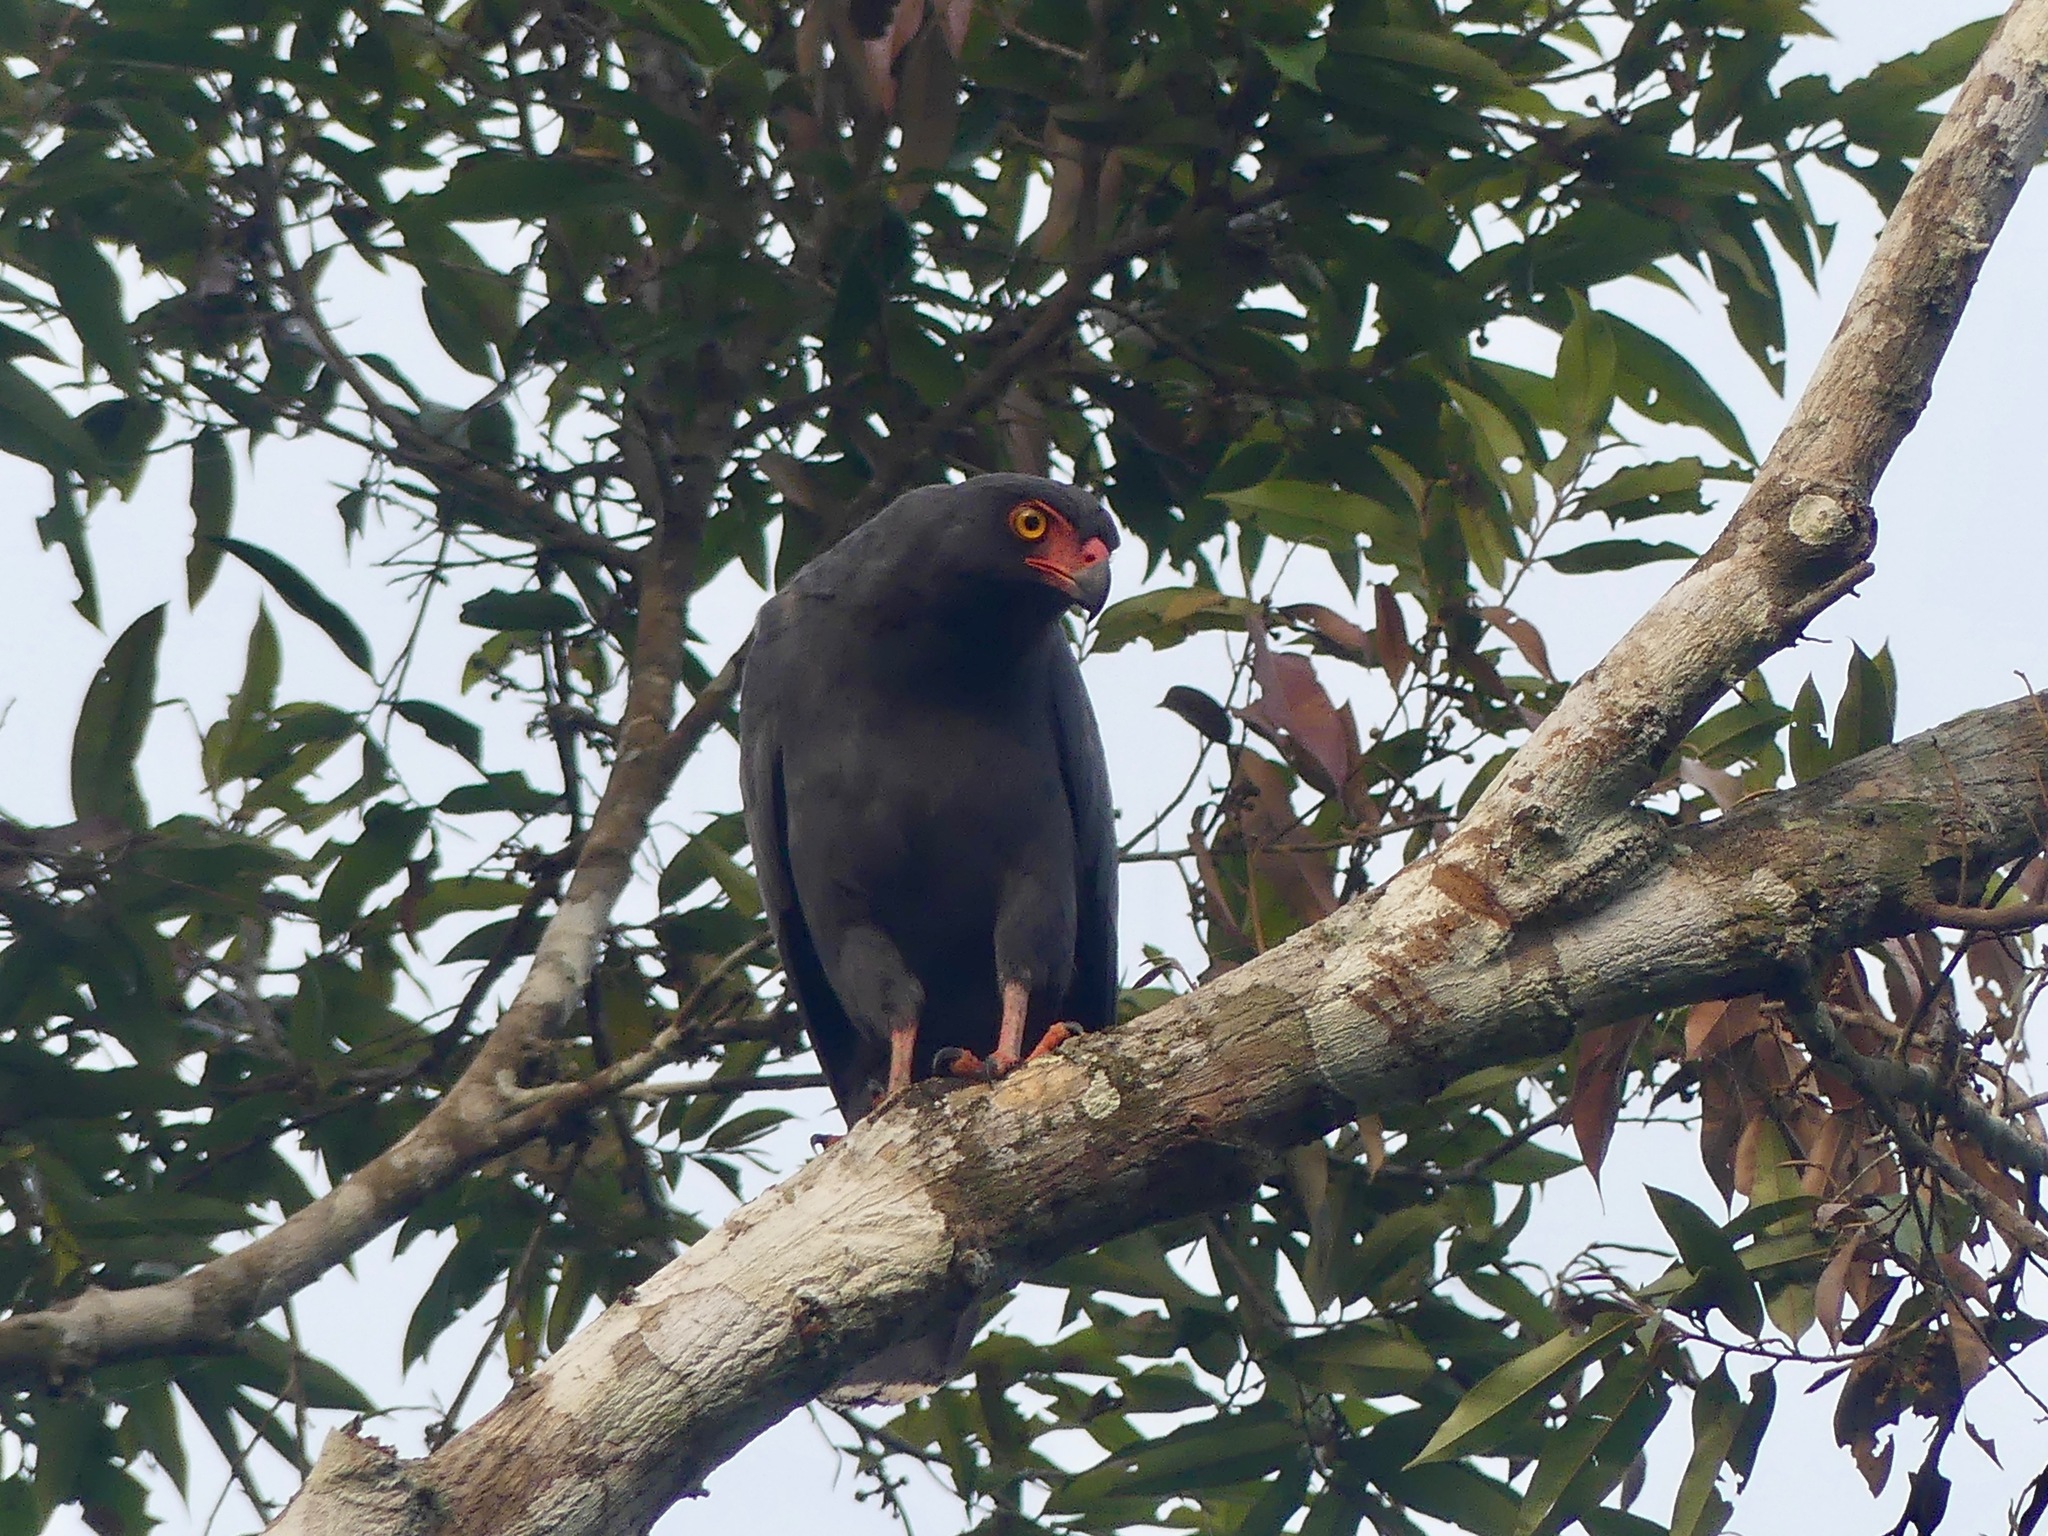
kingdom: Animalia
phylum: Chordata
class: Aves
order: Accipitriformes
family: Accipitridae
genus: Leucopternis
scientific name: Leucopternis schistaceus
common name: Slate-colored hawk
